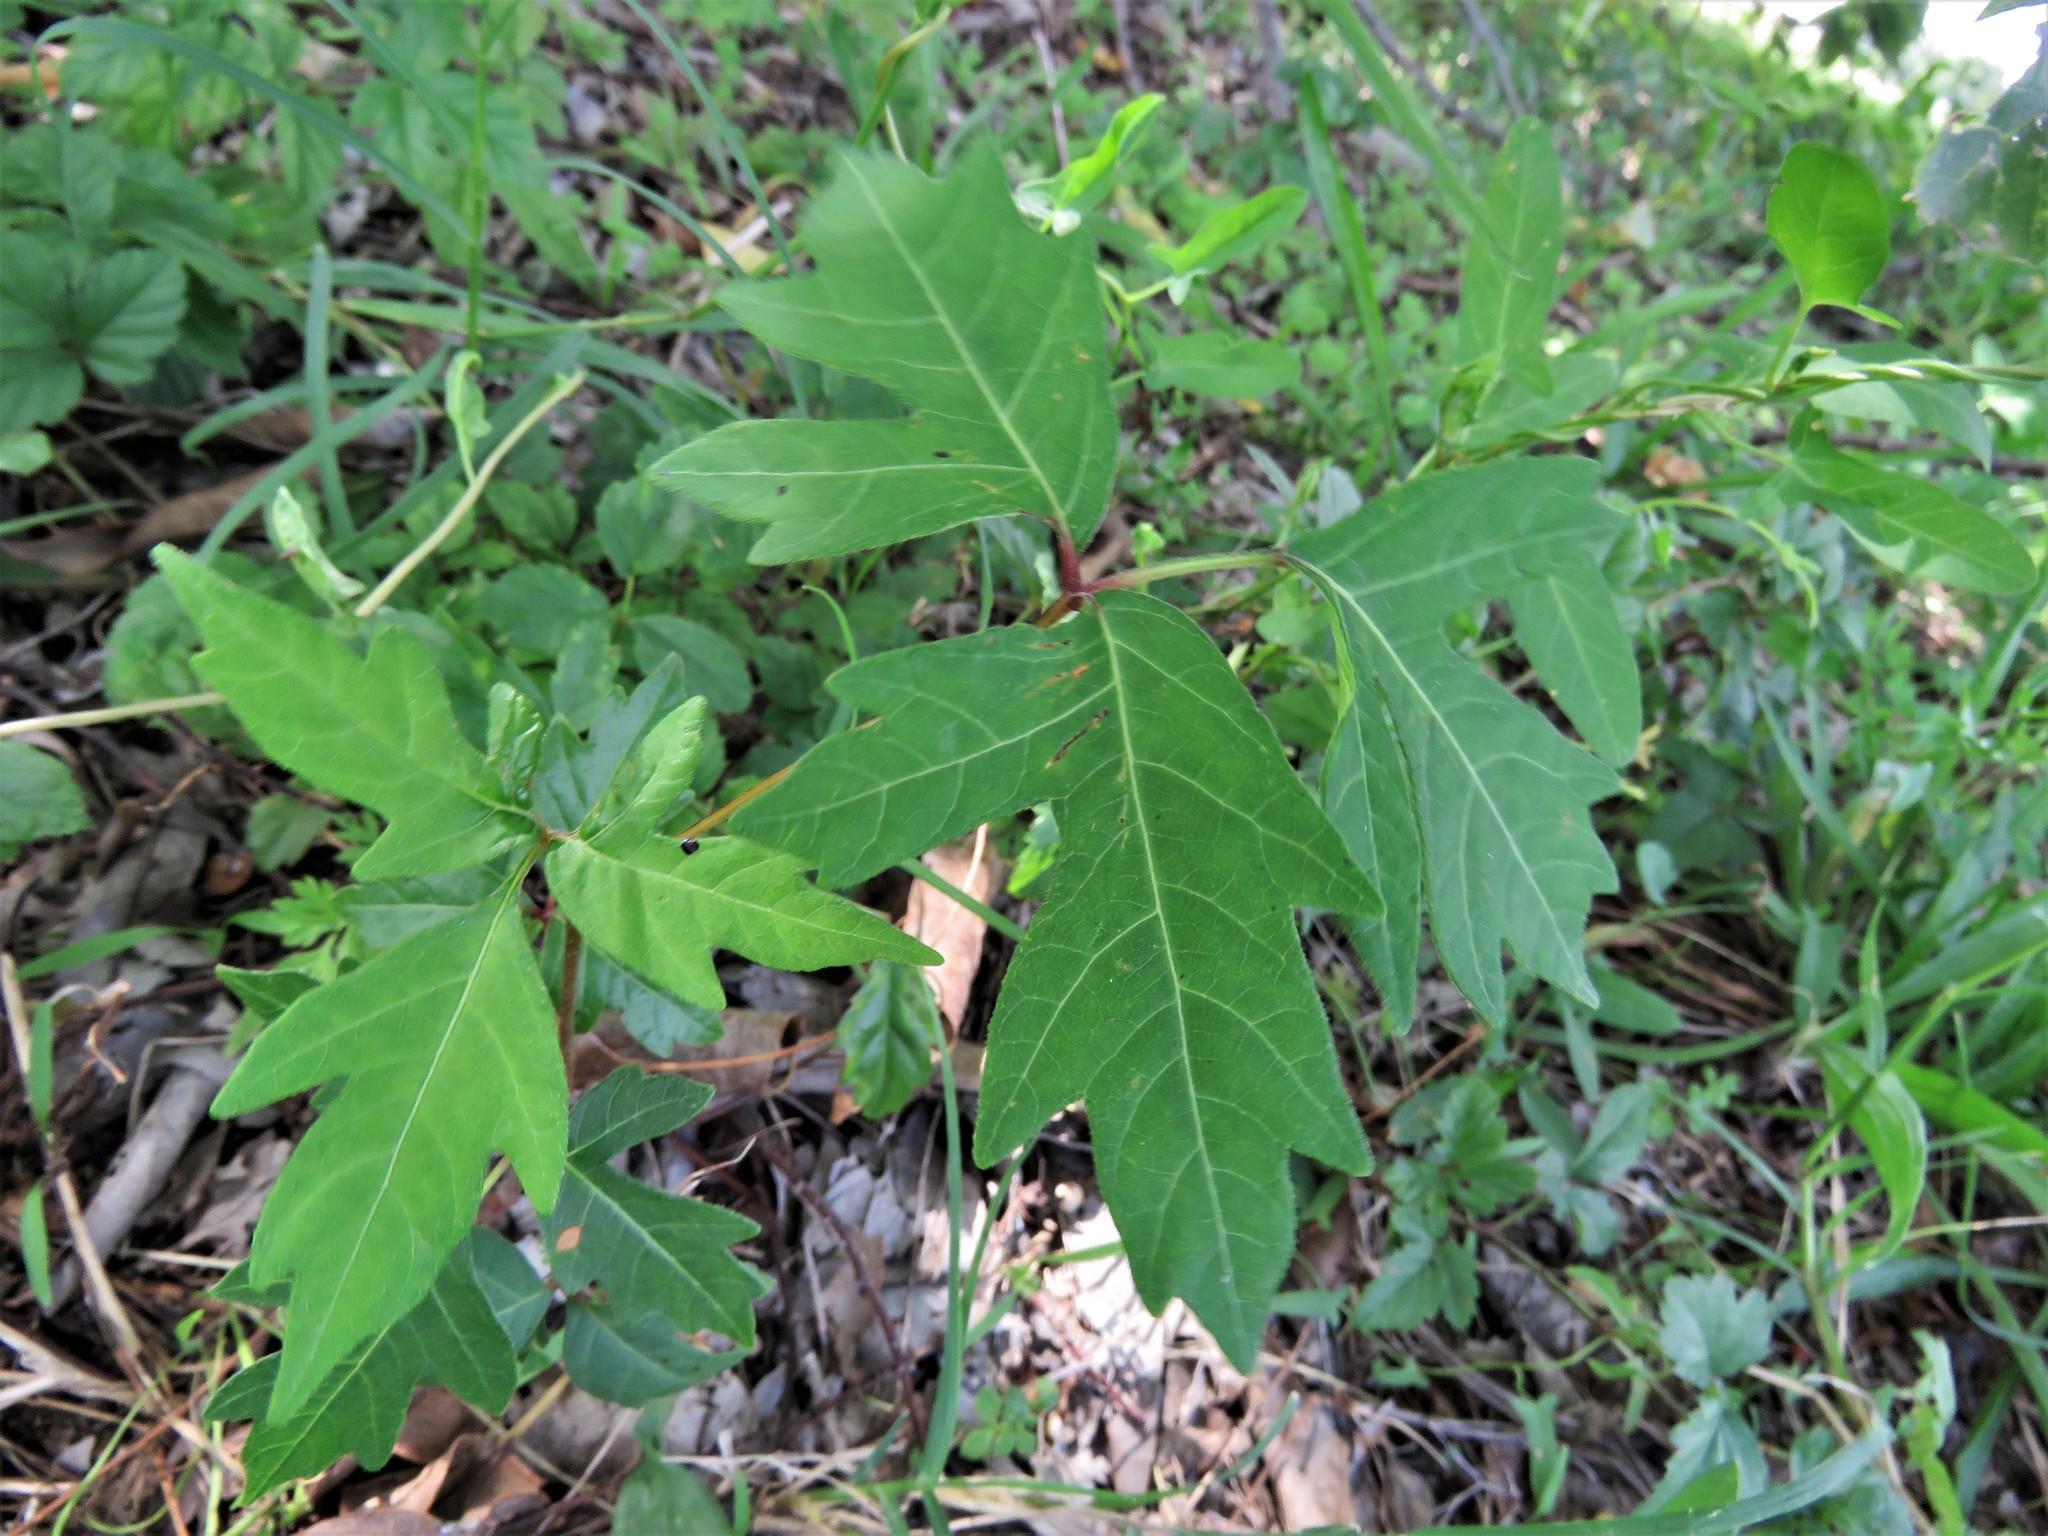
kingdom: Plantae
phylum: Tracheophyta
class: Magnoliopsida
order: Sapindales
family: Anacardiaceae
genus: Toxicodendron
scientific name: Toxicodendron radicans
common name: Poison ivy
